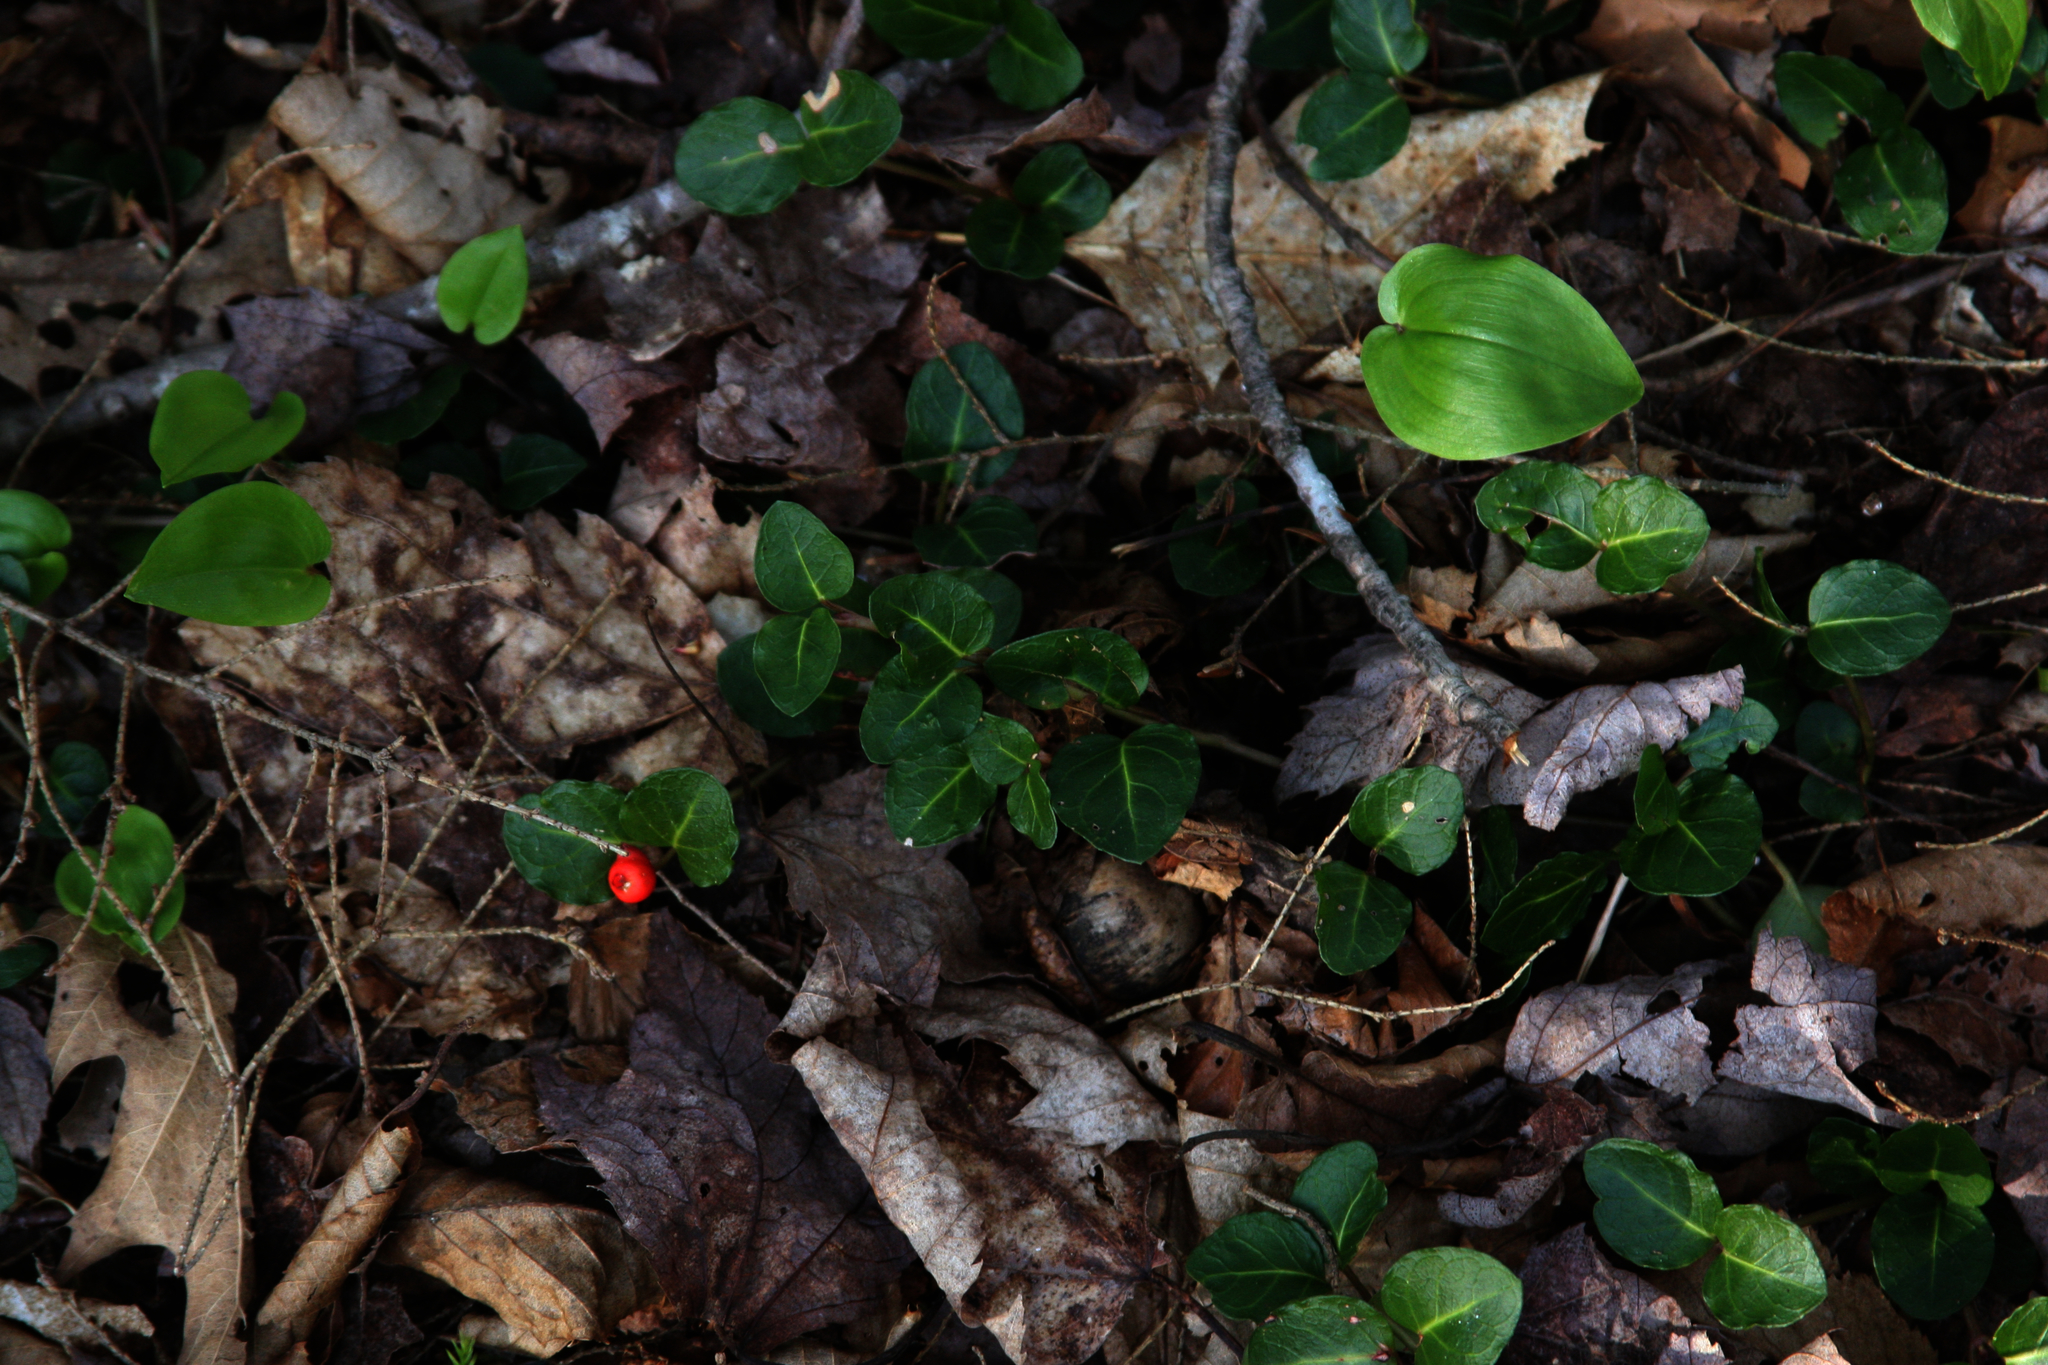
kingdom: Plantae
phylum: Tracheophyta
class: Magnoliopsida
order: Gentianales
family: Rubiaceae
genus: Mitchella
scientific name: Mitchella repens
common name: Partridge-berry
